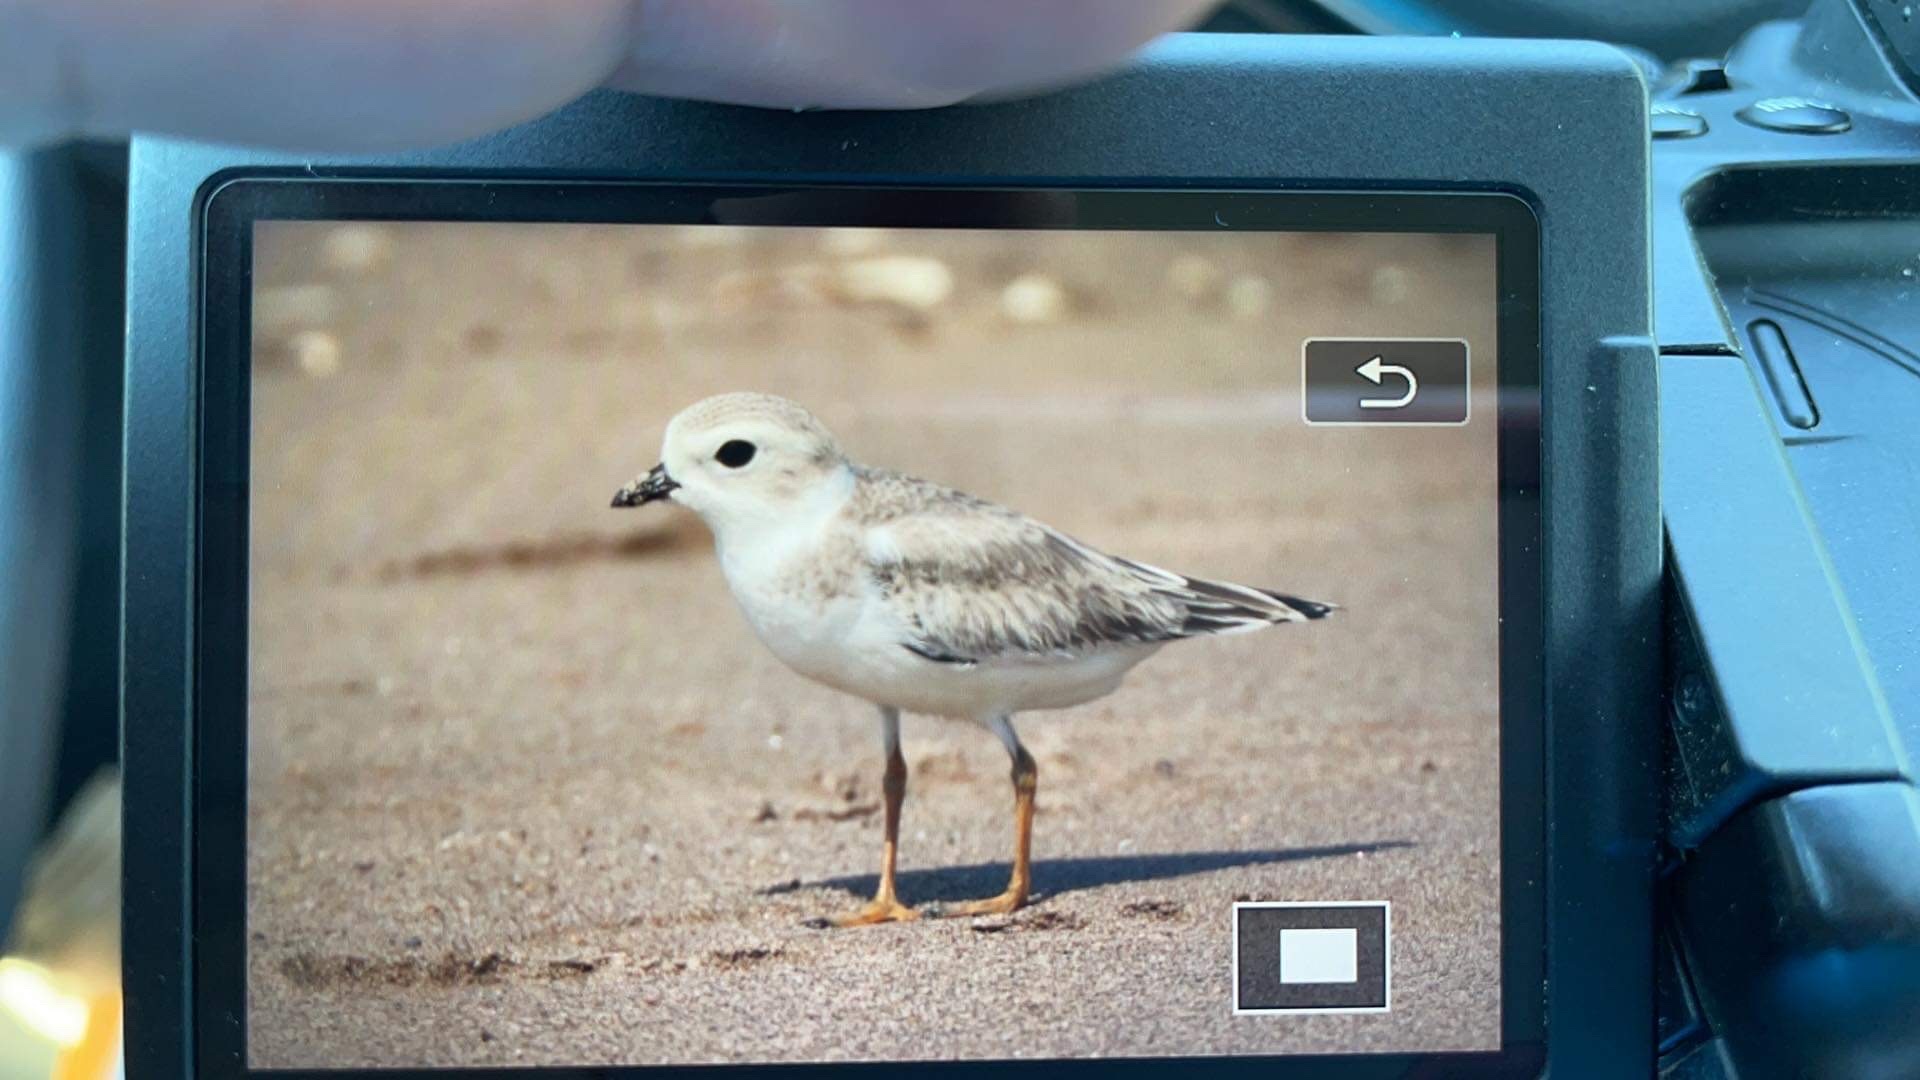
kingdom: Animalia
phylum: Chordata
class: Aves
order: Charadriiformes
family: Charadriidae
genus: Charadrius
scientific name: Charadrius melodus
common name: Piping plover
